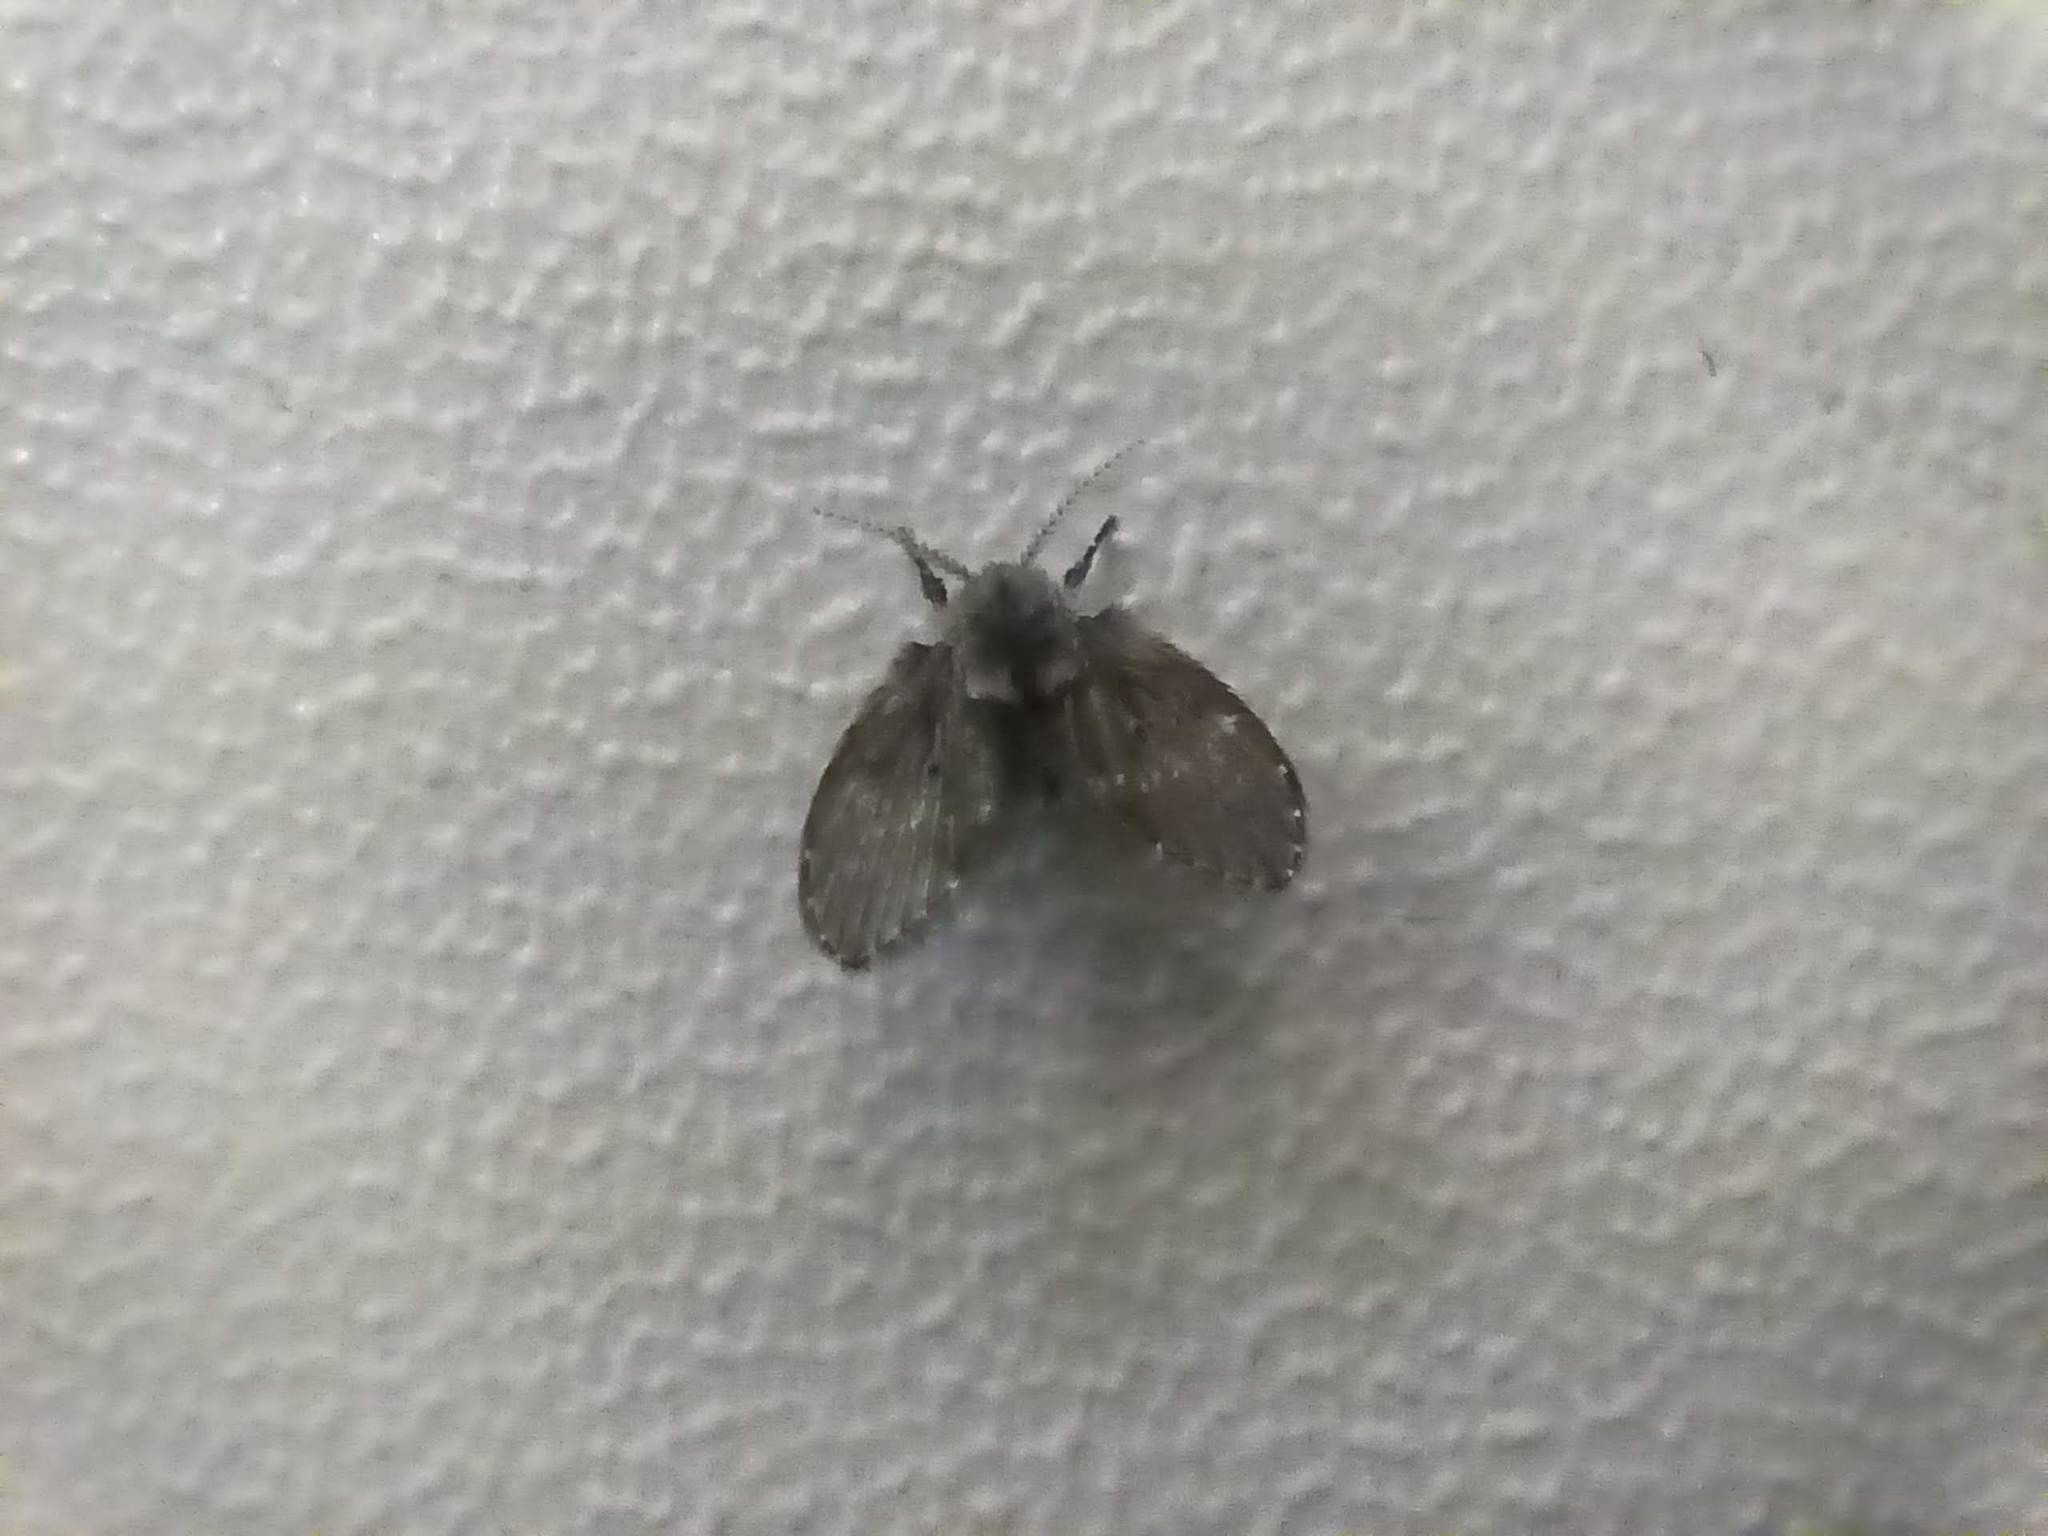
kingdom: Animalia
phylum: Arthropoda
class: Insecta
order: Diptera
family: Psychodidae
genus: Clogmia
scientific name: Clogmia albipunctatus
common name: White-spotted moth fly
